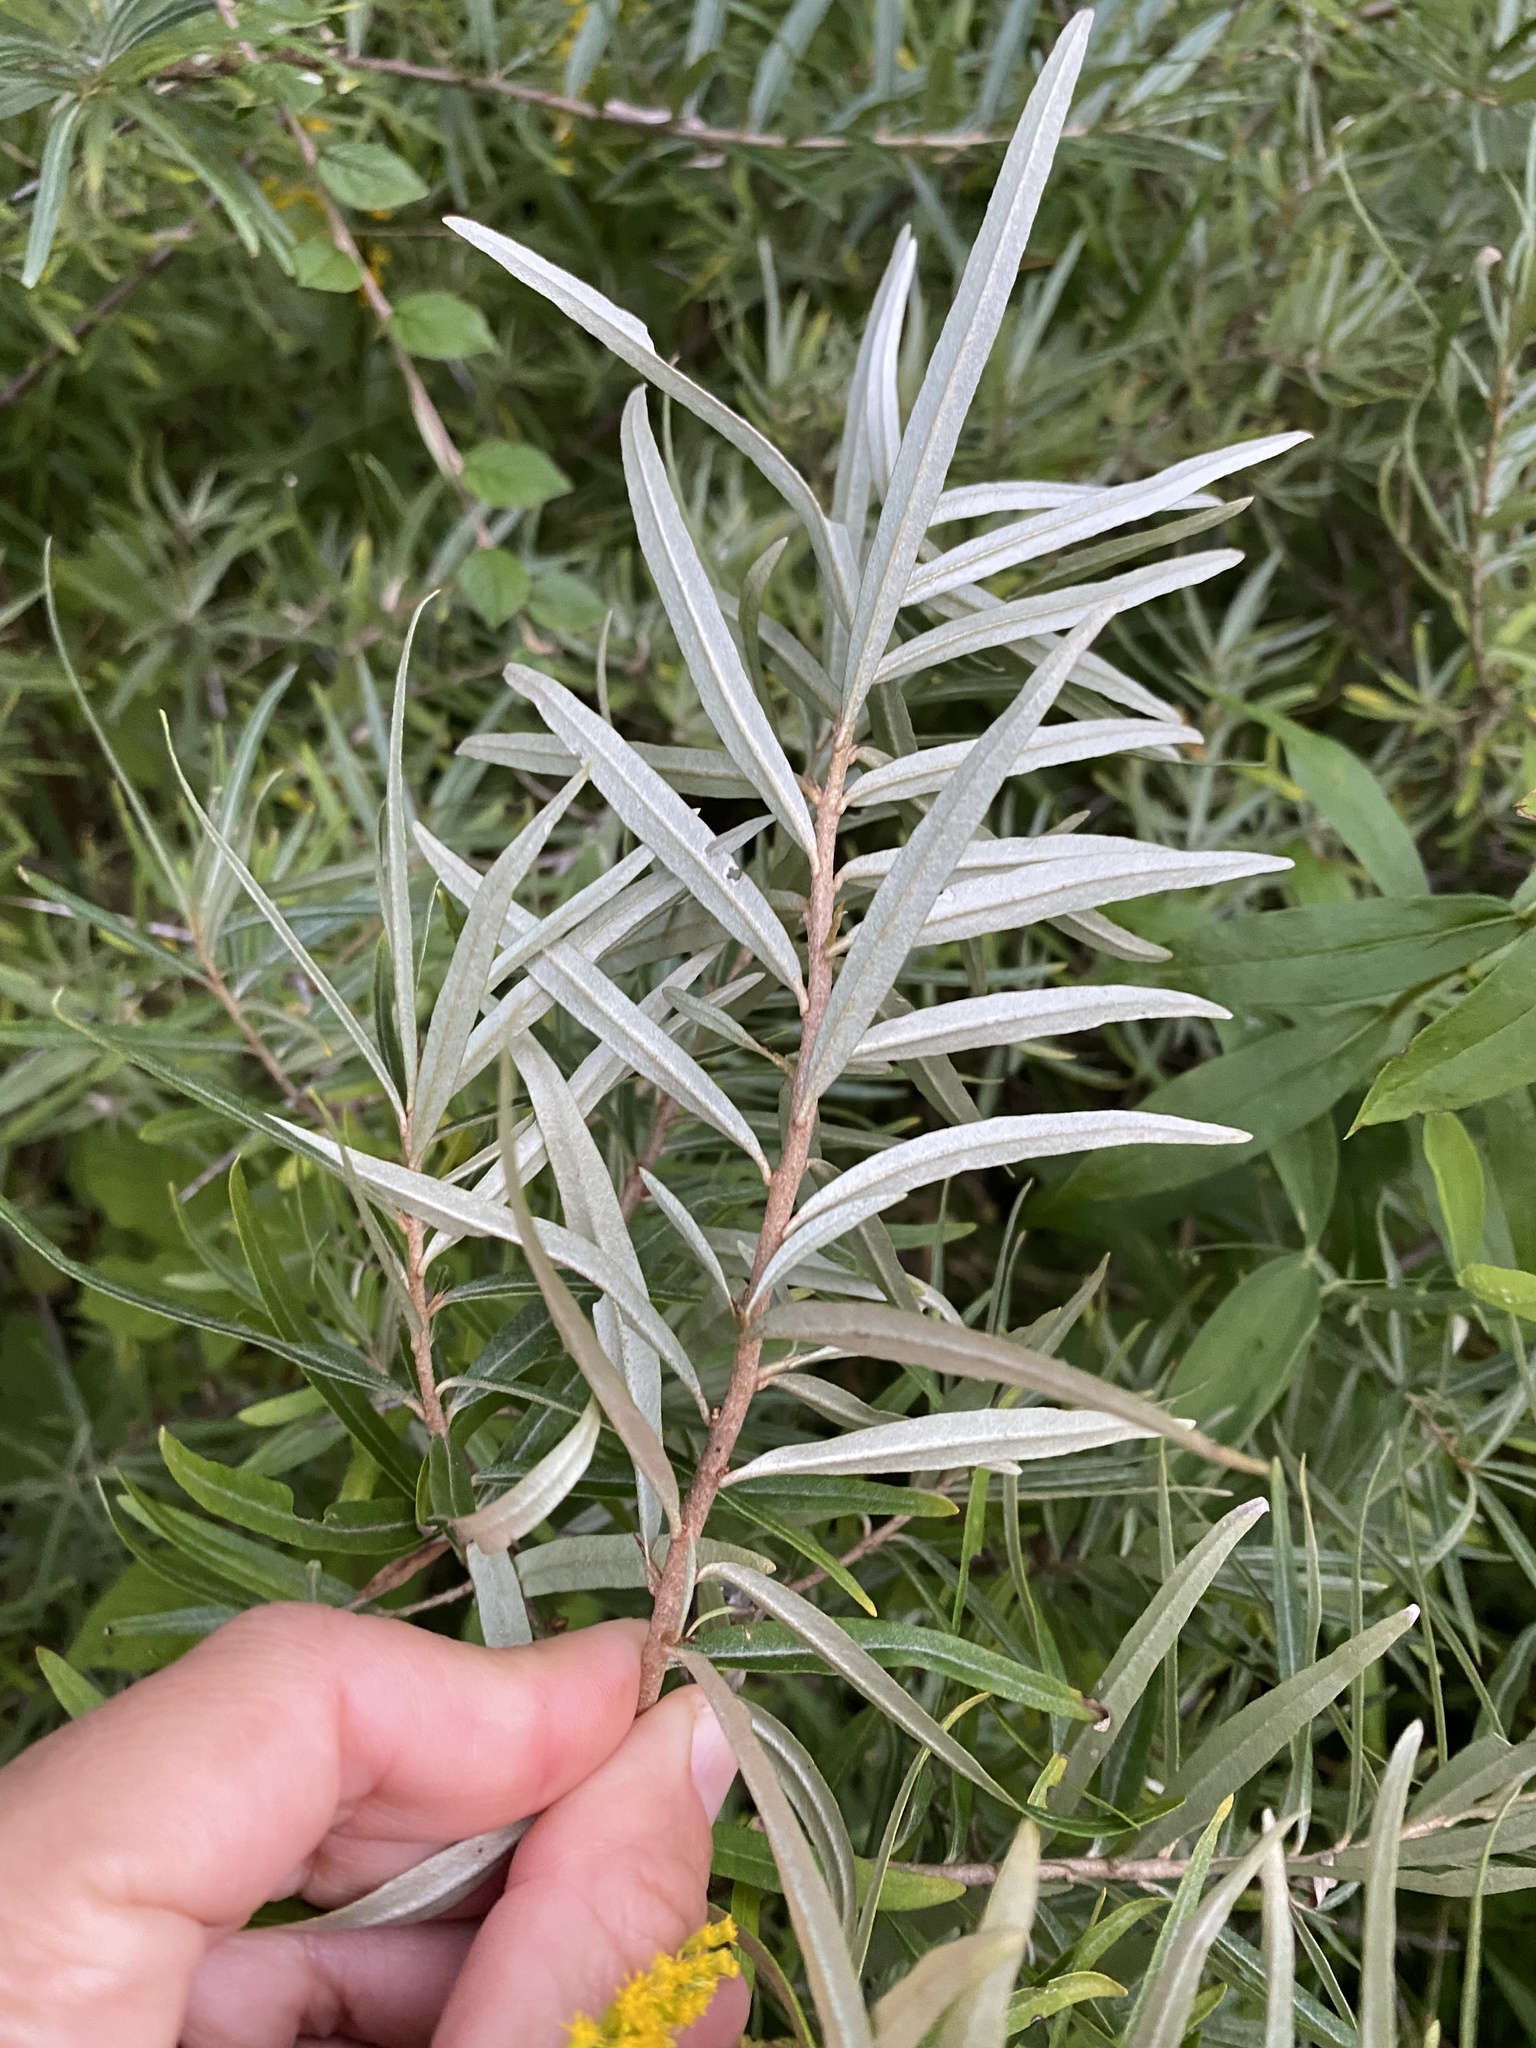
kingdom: Plantae
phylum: Tracheophyta
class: Magnoliopsida
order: Rosales
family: Elaeagnaceae
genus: Hippophae
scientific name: Hippophae rhamnoides
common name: Sea-buckthorn
